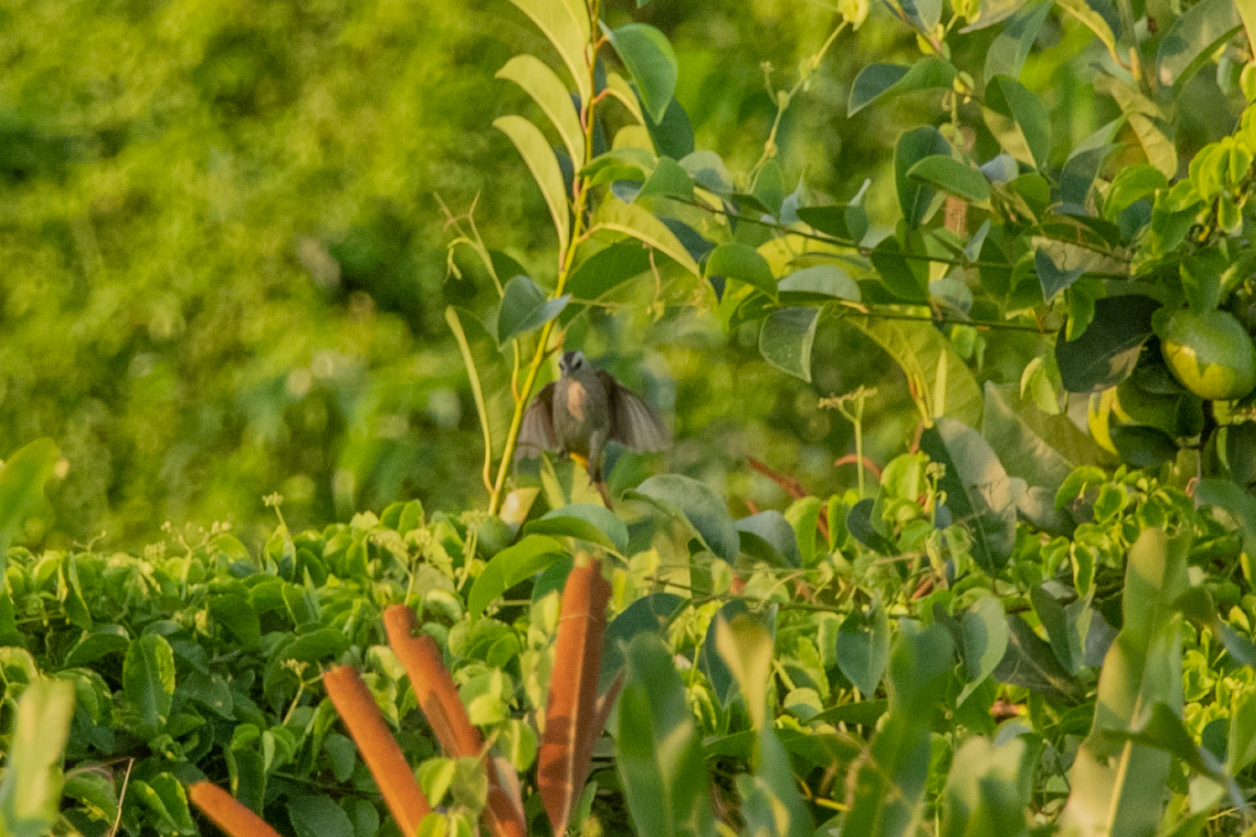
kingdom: Animalia
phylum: Chordata
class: Aves
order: Passeriformes
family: Pycnonotidae
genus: Pycnonotus
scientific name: Pycnonotus goiavier
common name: Yellow-vented bulbul
